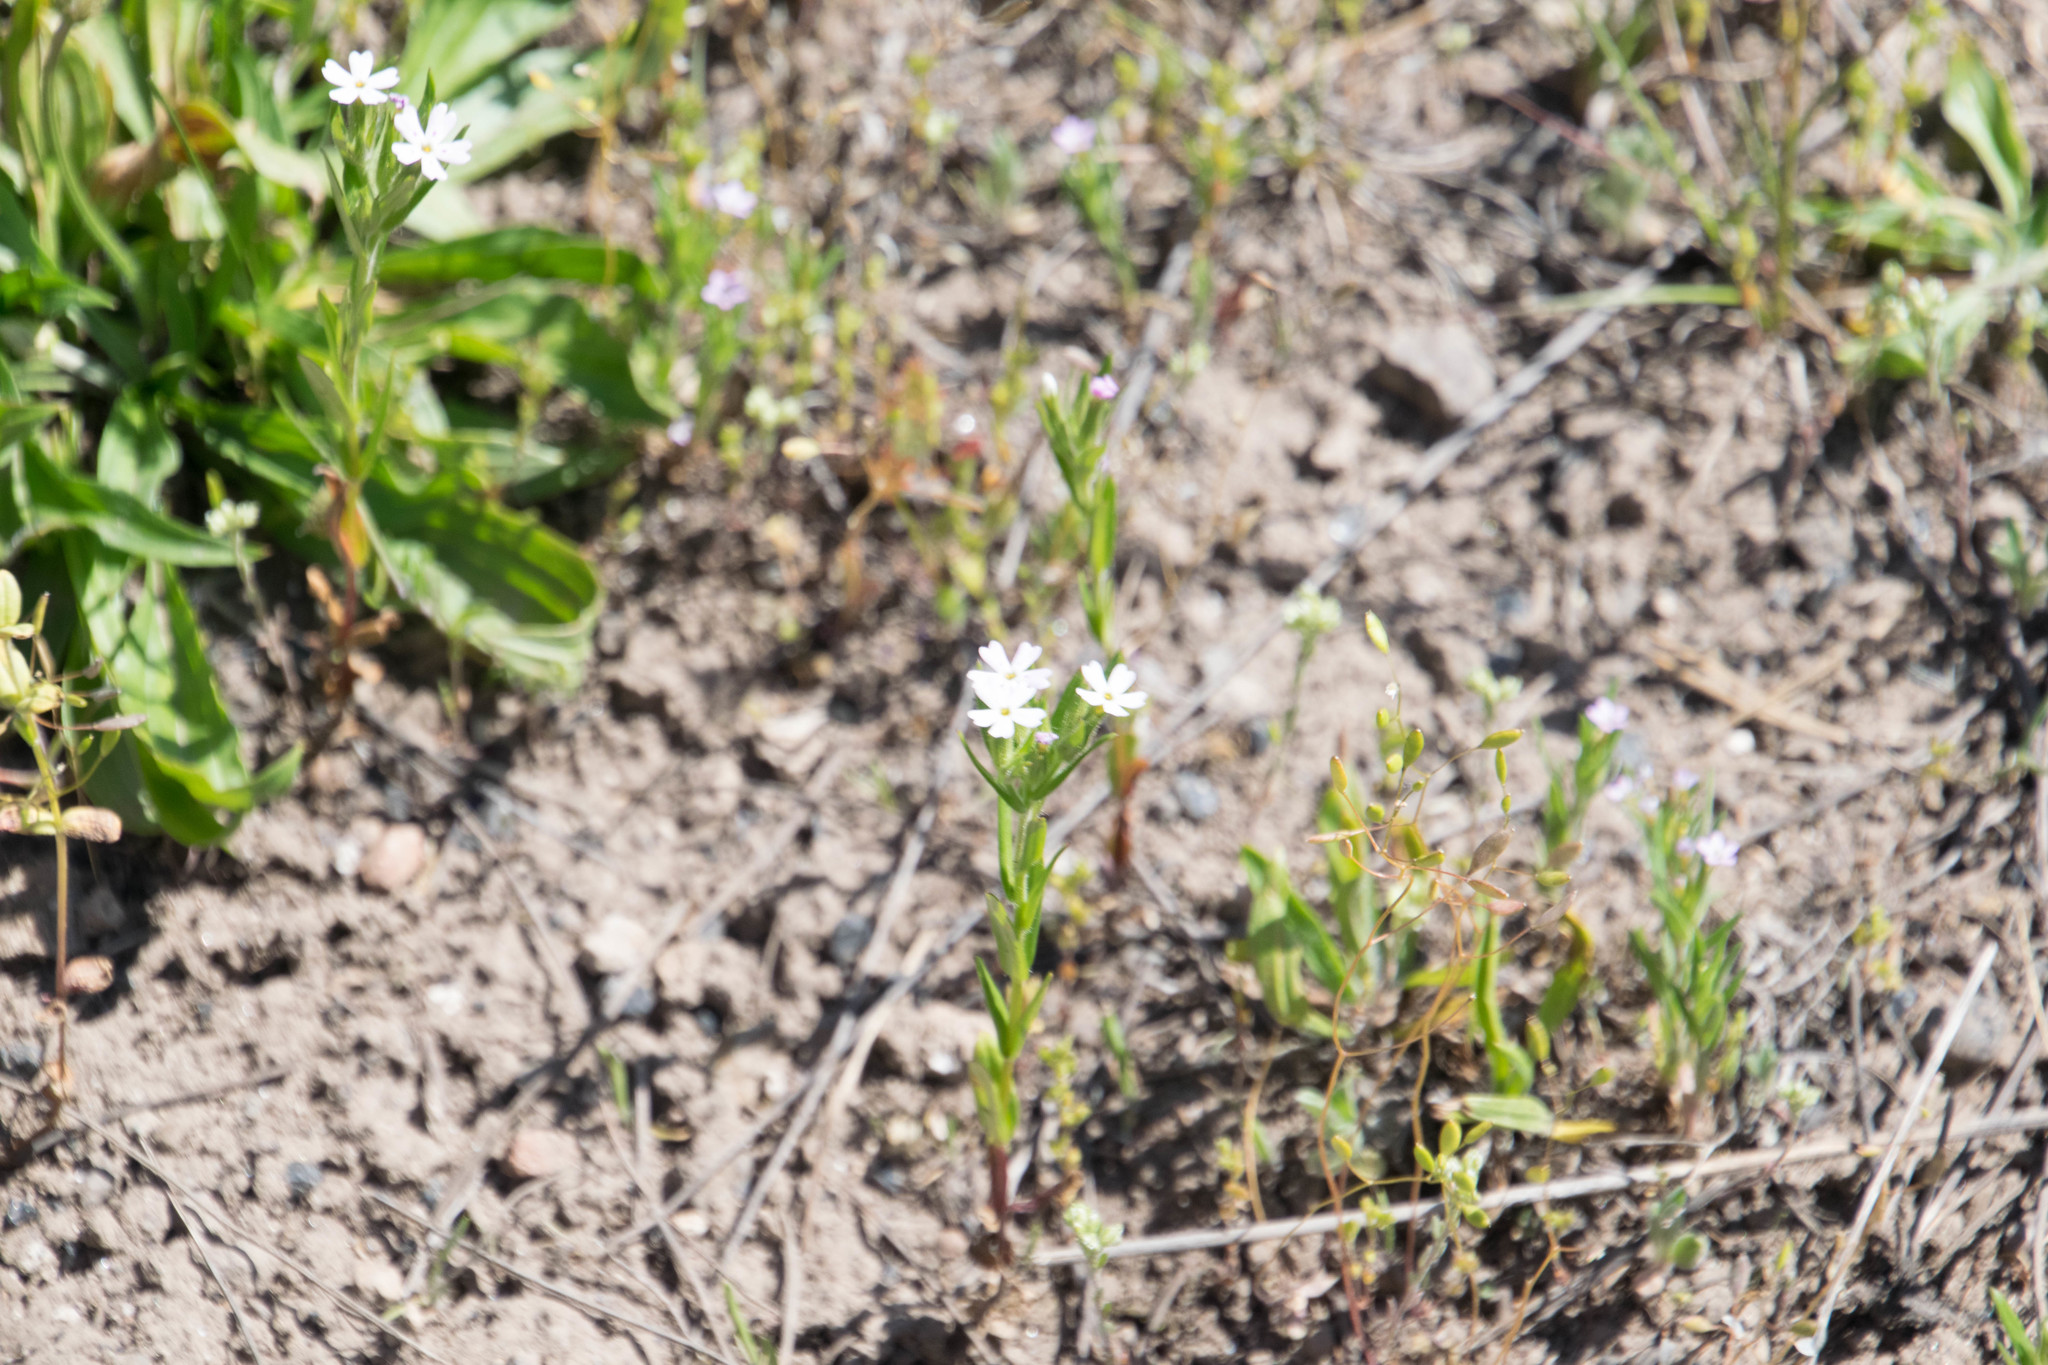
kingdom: Plantae
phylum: Tracheophyta
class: Magnoliopsida
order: Ericales
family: Polemoniaceae
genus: Phlox
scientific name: Phlox gracilis
